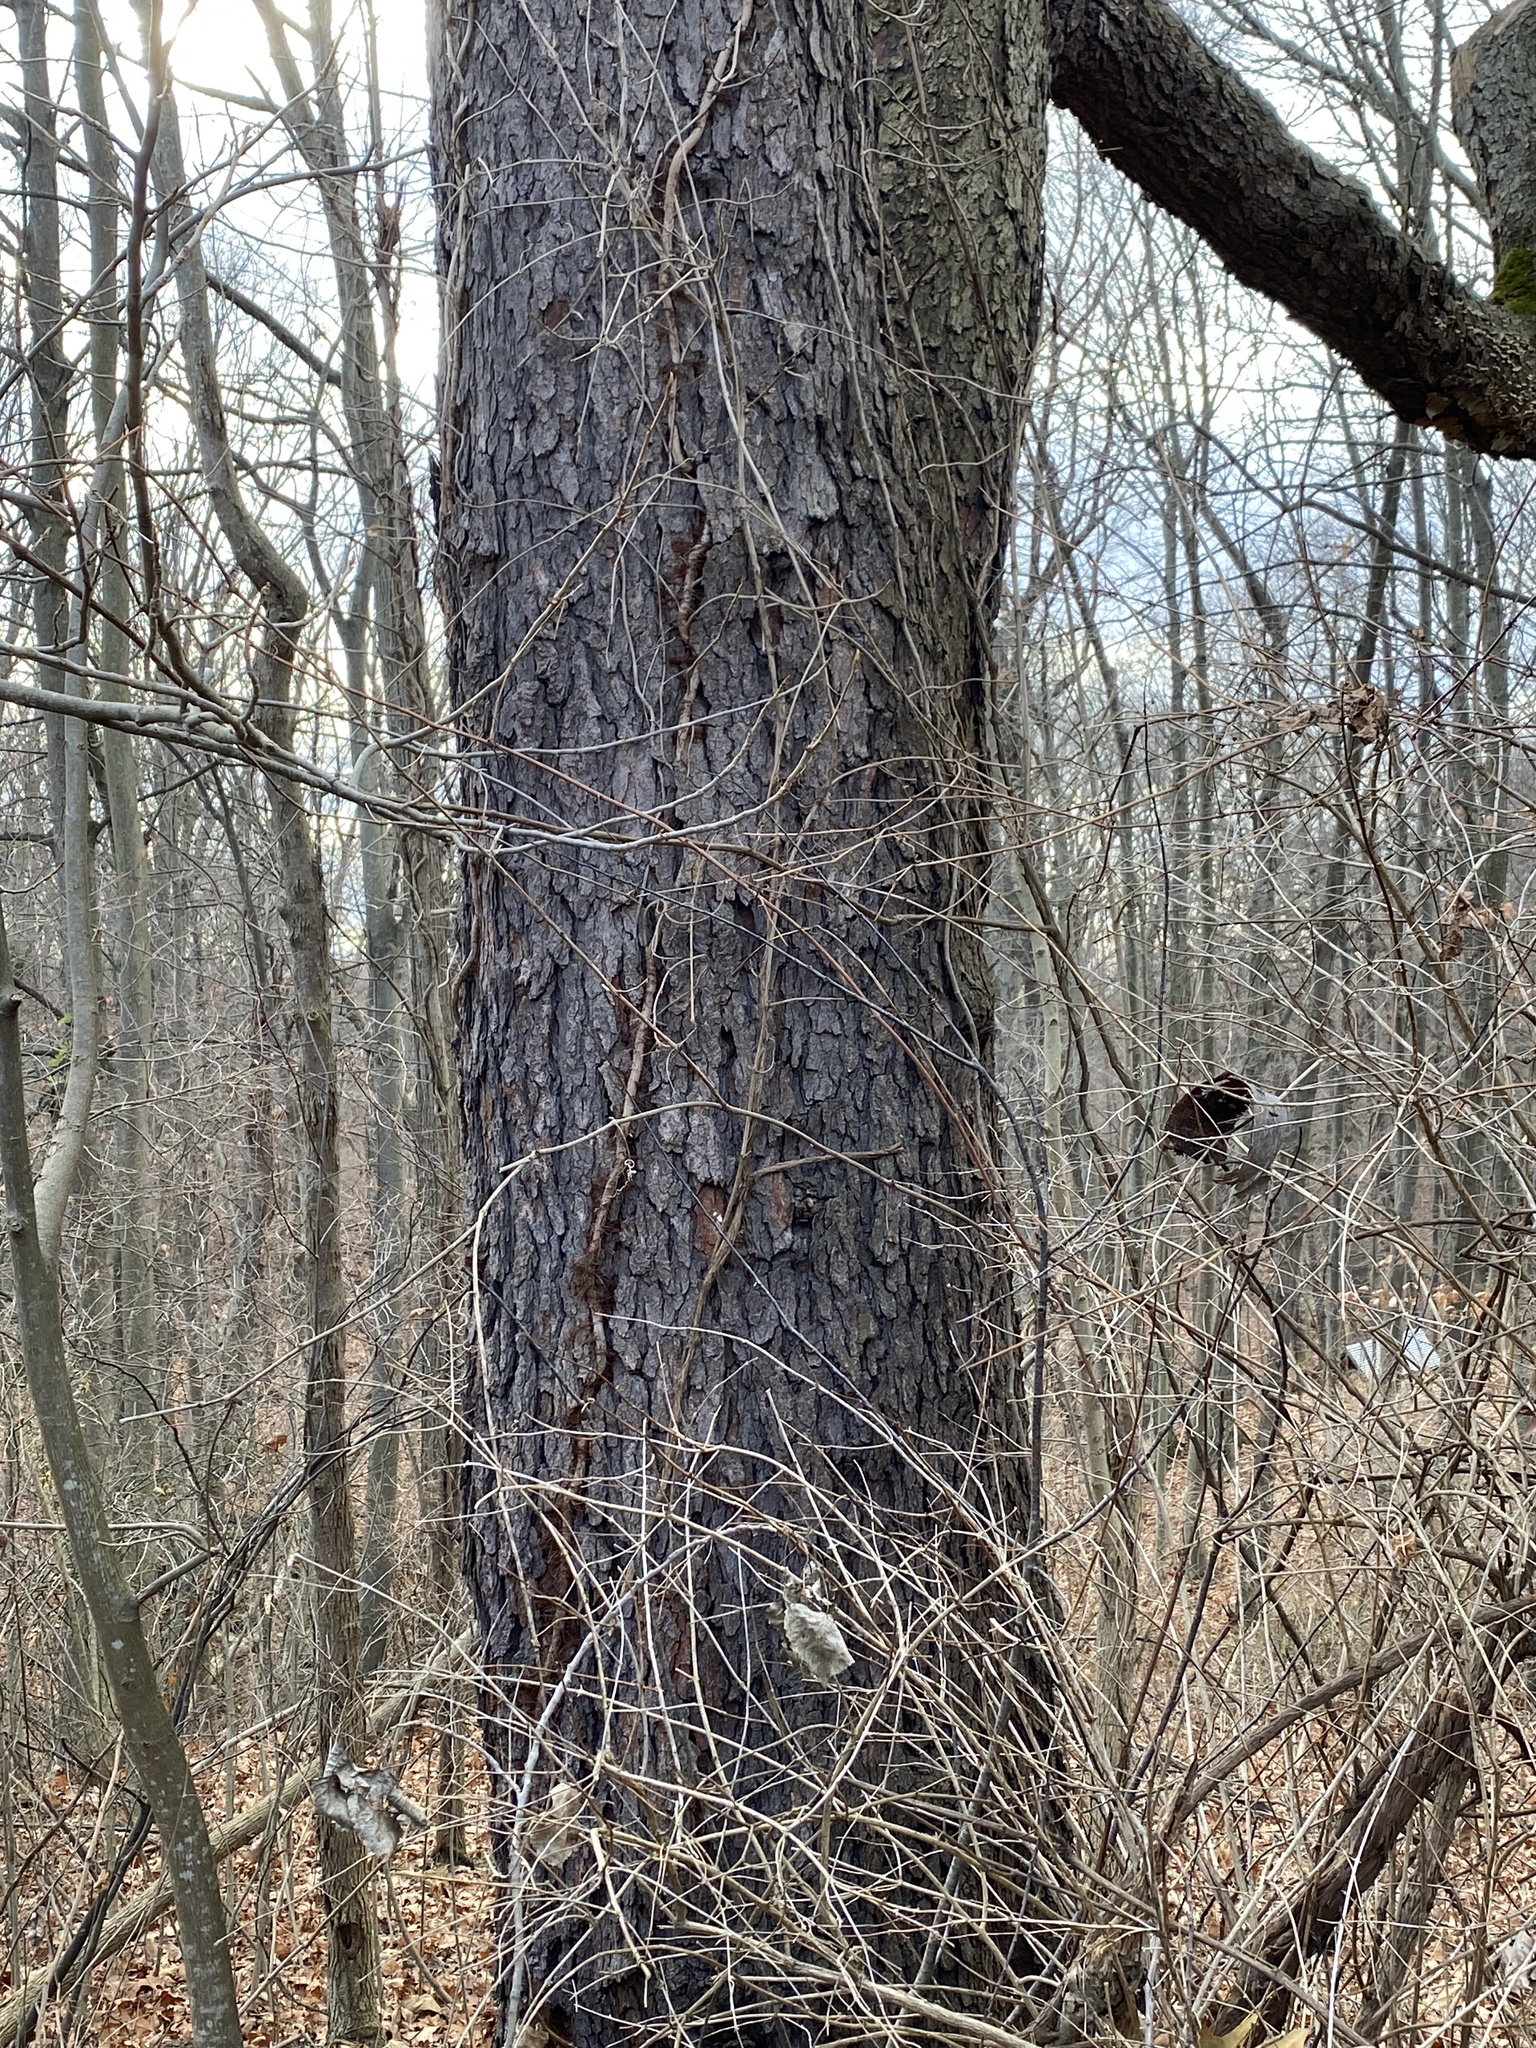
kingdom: Plantae
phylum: Tracheophyta
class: Magnoliopsida
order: Rosales
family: Rosaceae
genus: Prunus
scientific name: Prunus serotina
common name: Black cherry
